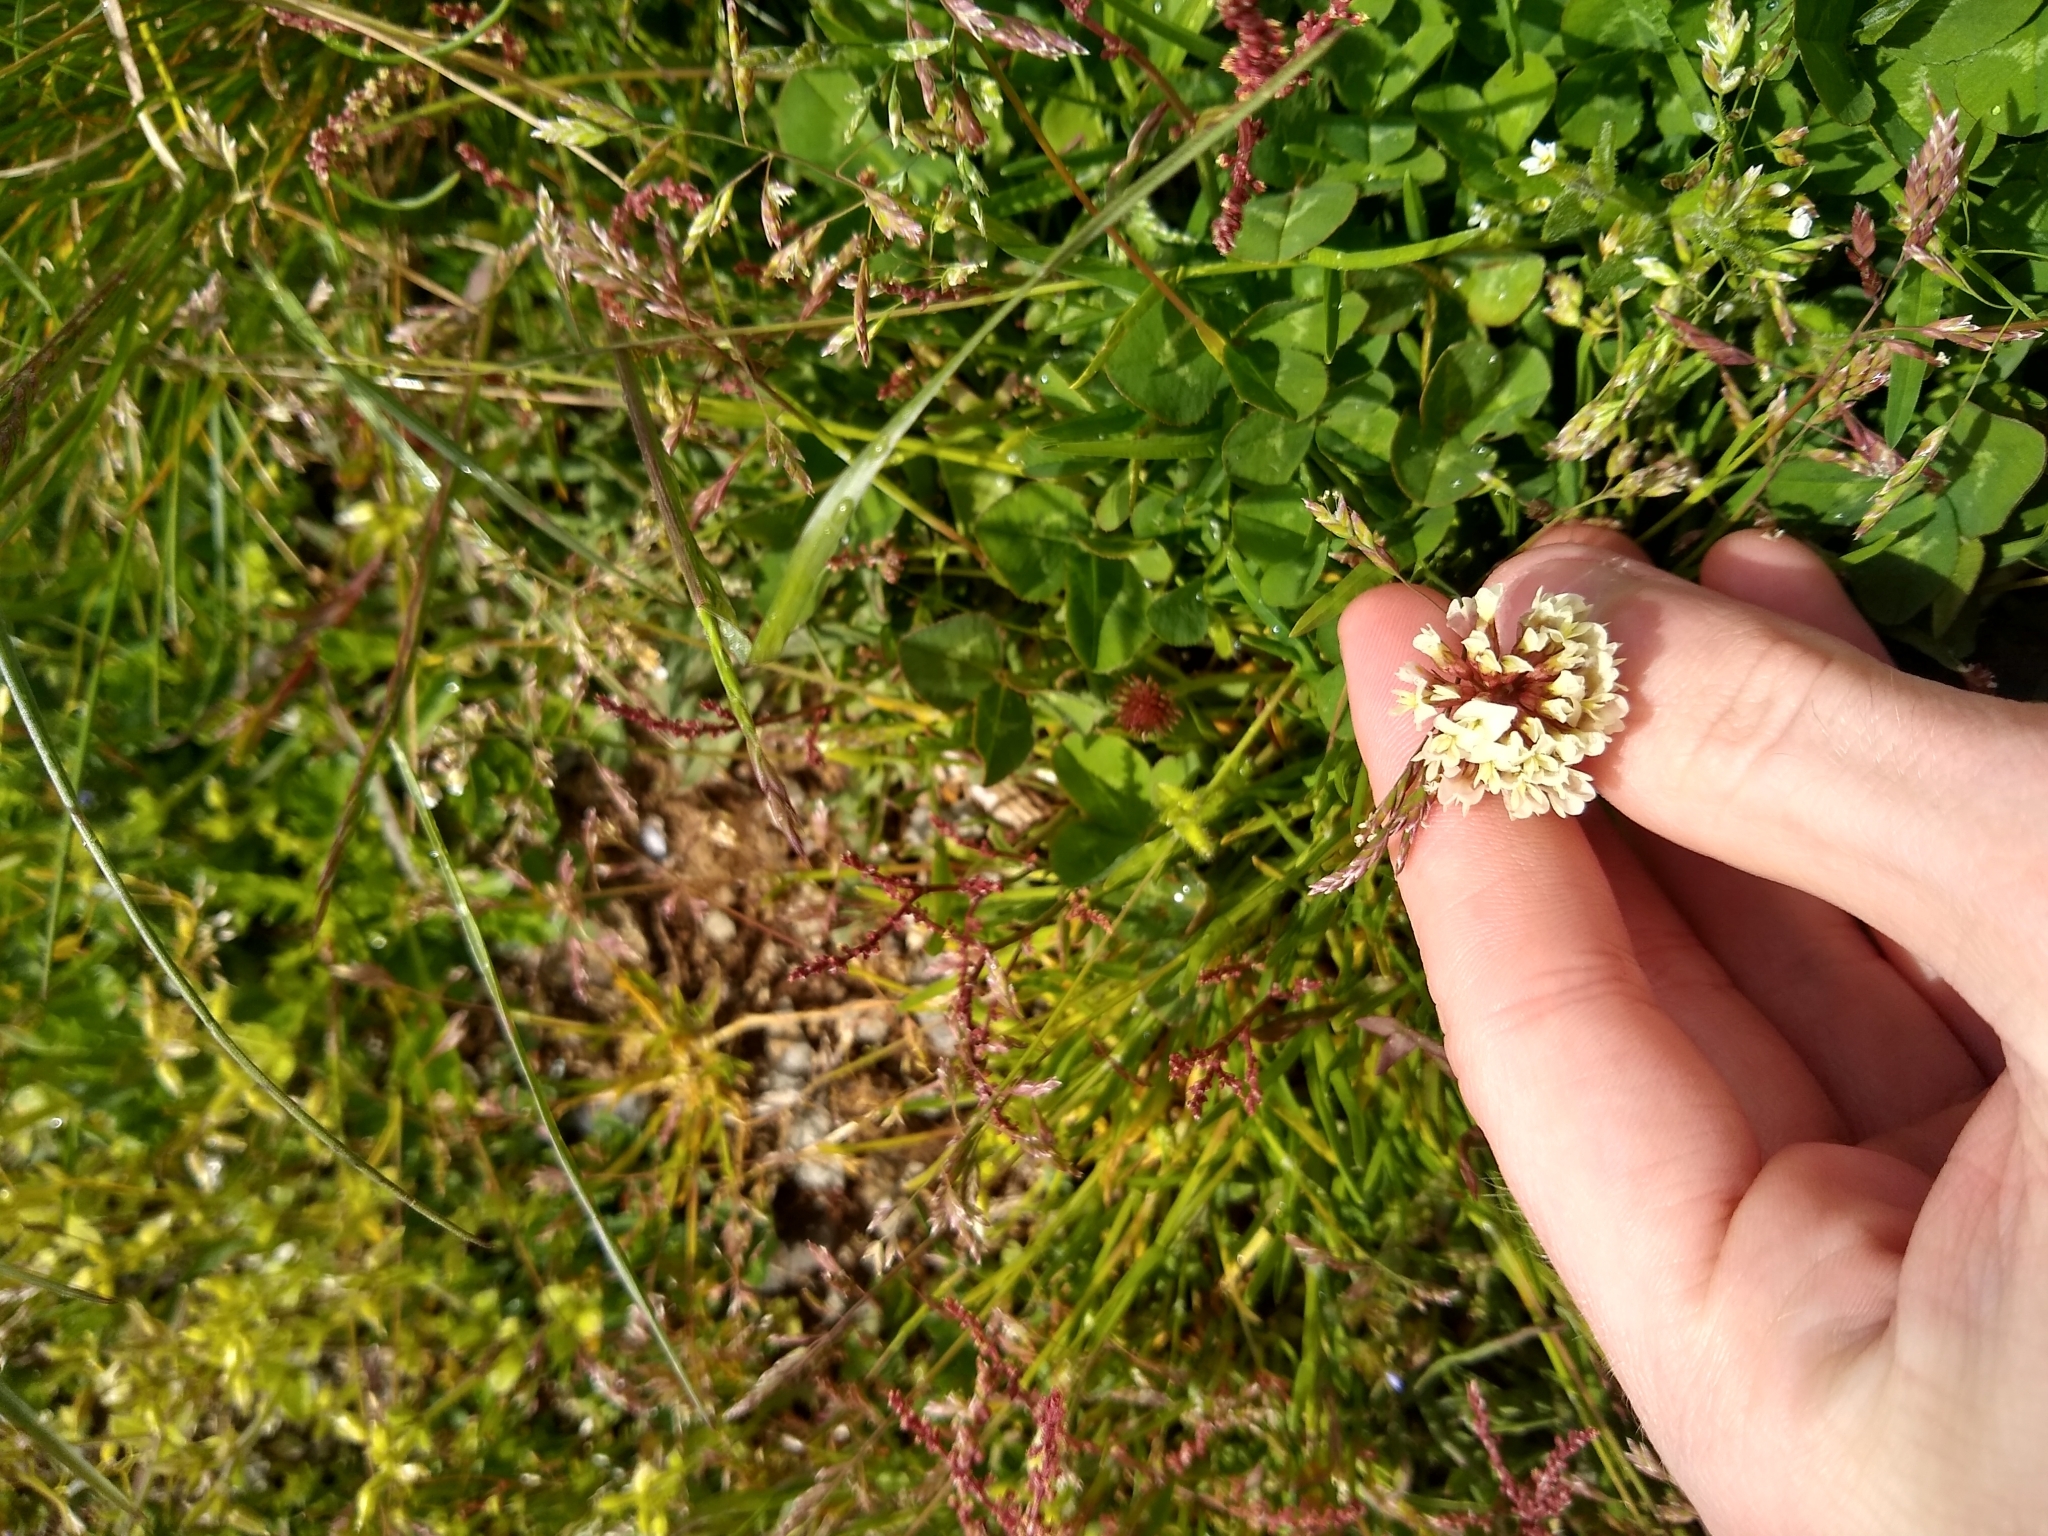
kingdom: Plantae
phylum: Tracheophyta
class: Magnoliopsida
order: Fabales
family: Fabaceae
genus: Trifolium
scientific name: Trifolium repens
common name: White clover
